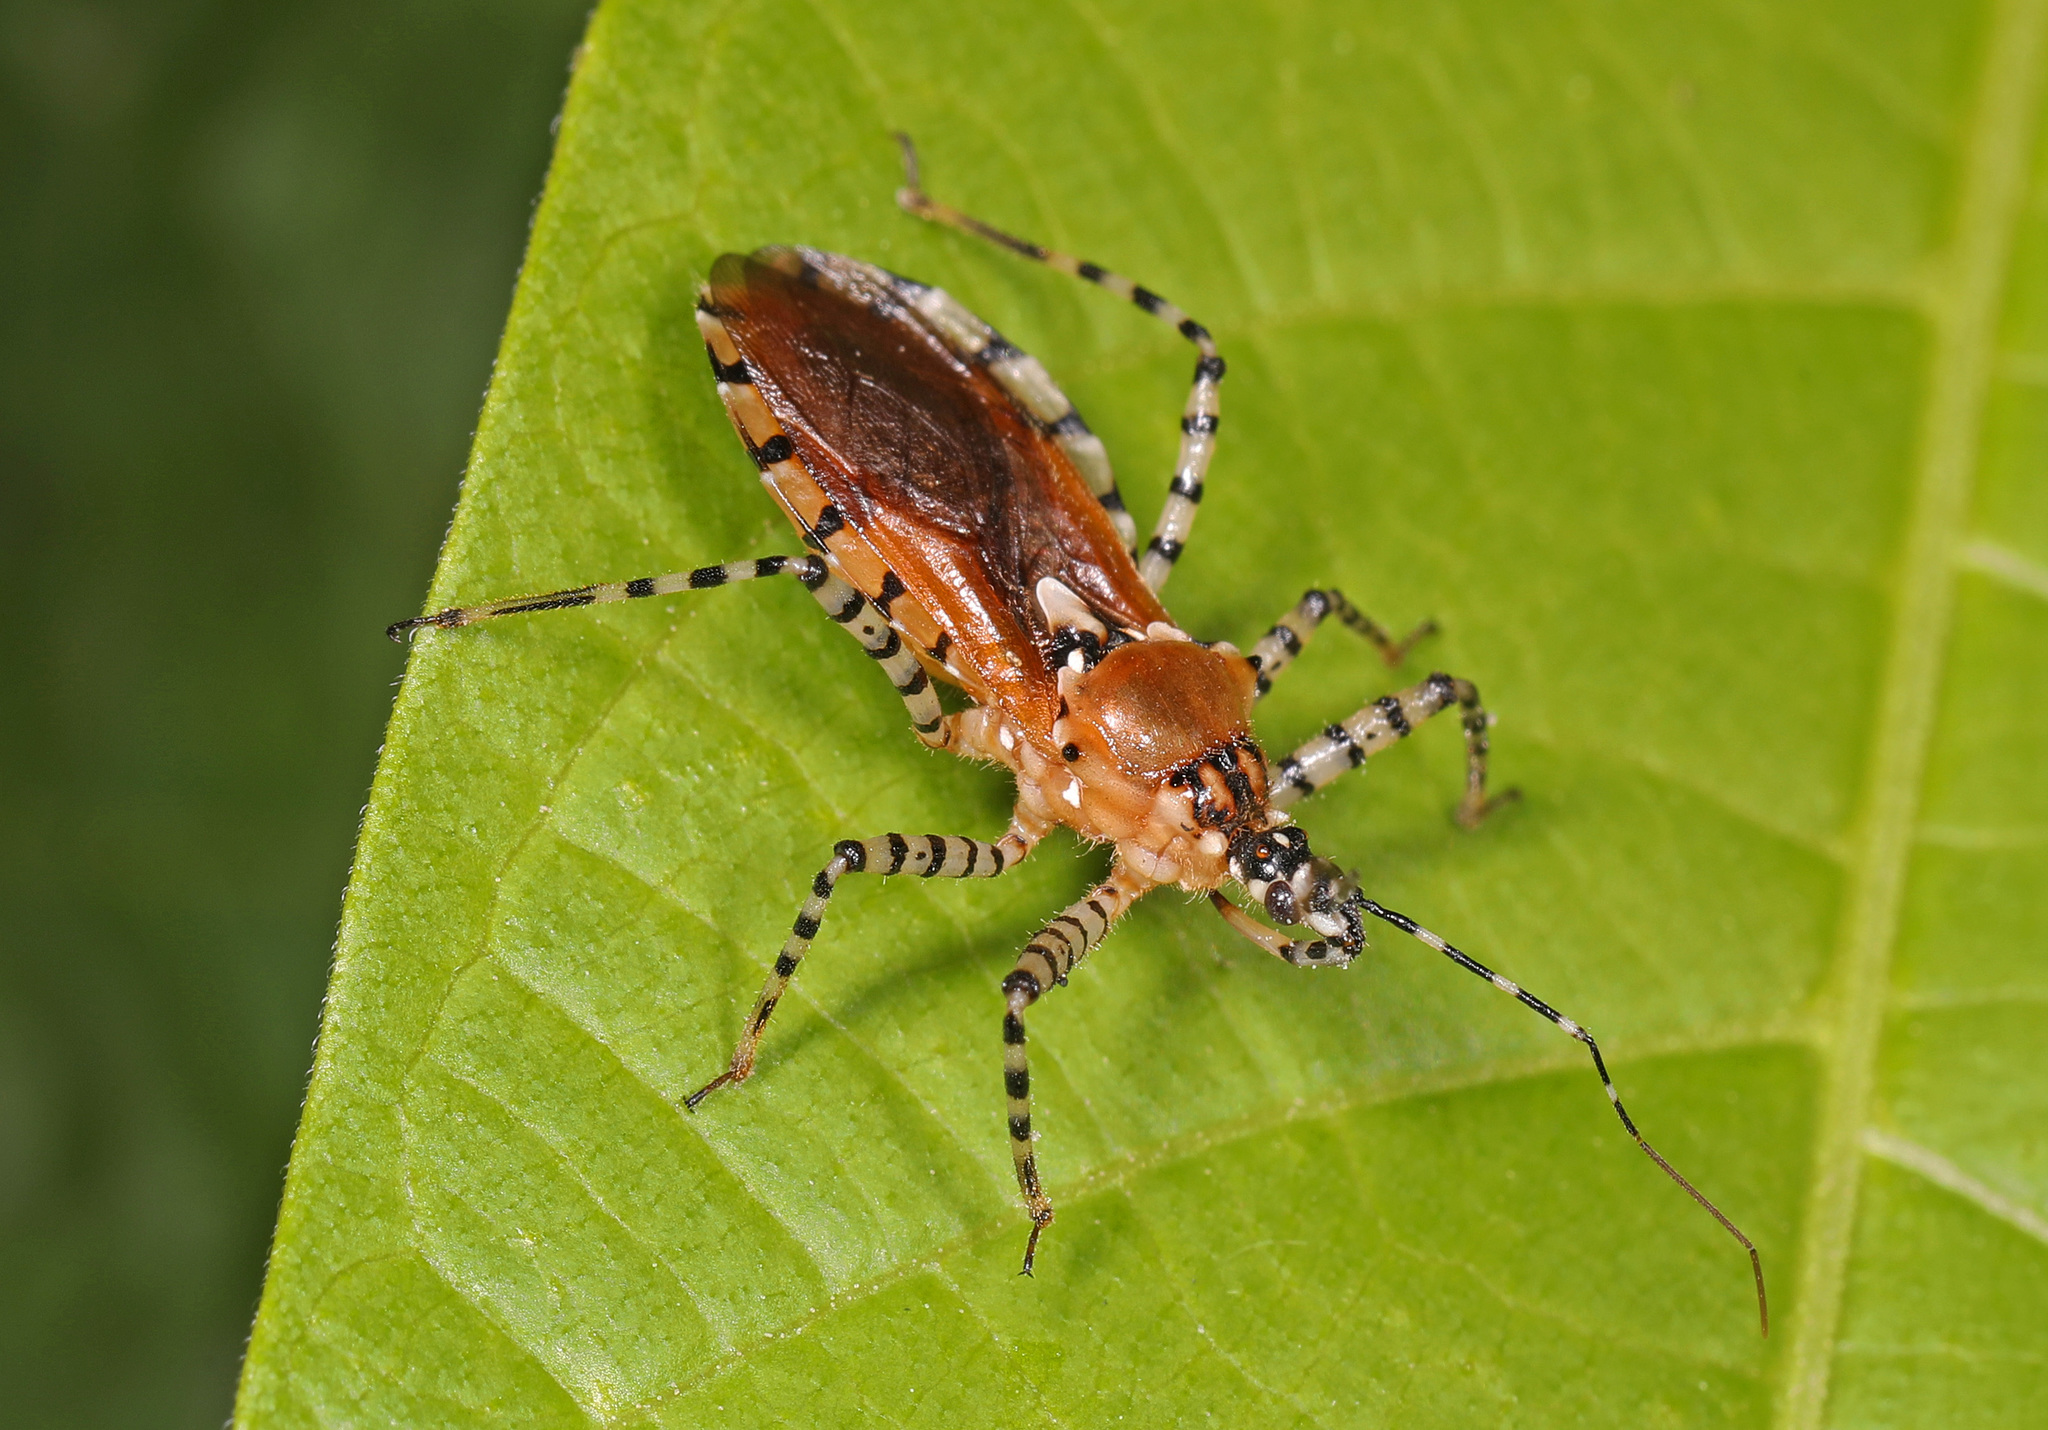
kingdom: Animalia
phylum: Arthropoda
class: Insecta
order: Hemiptera
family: Reduviidae
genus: Pselliopus
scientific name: Pselliopus cinctus
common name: Ringed assassin bug
